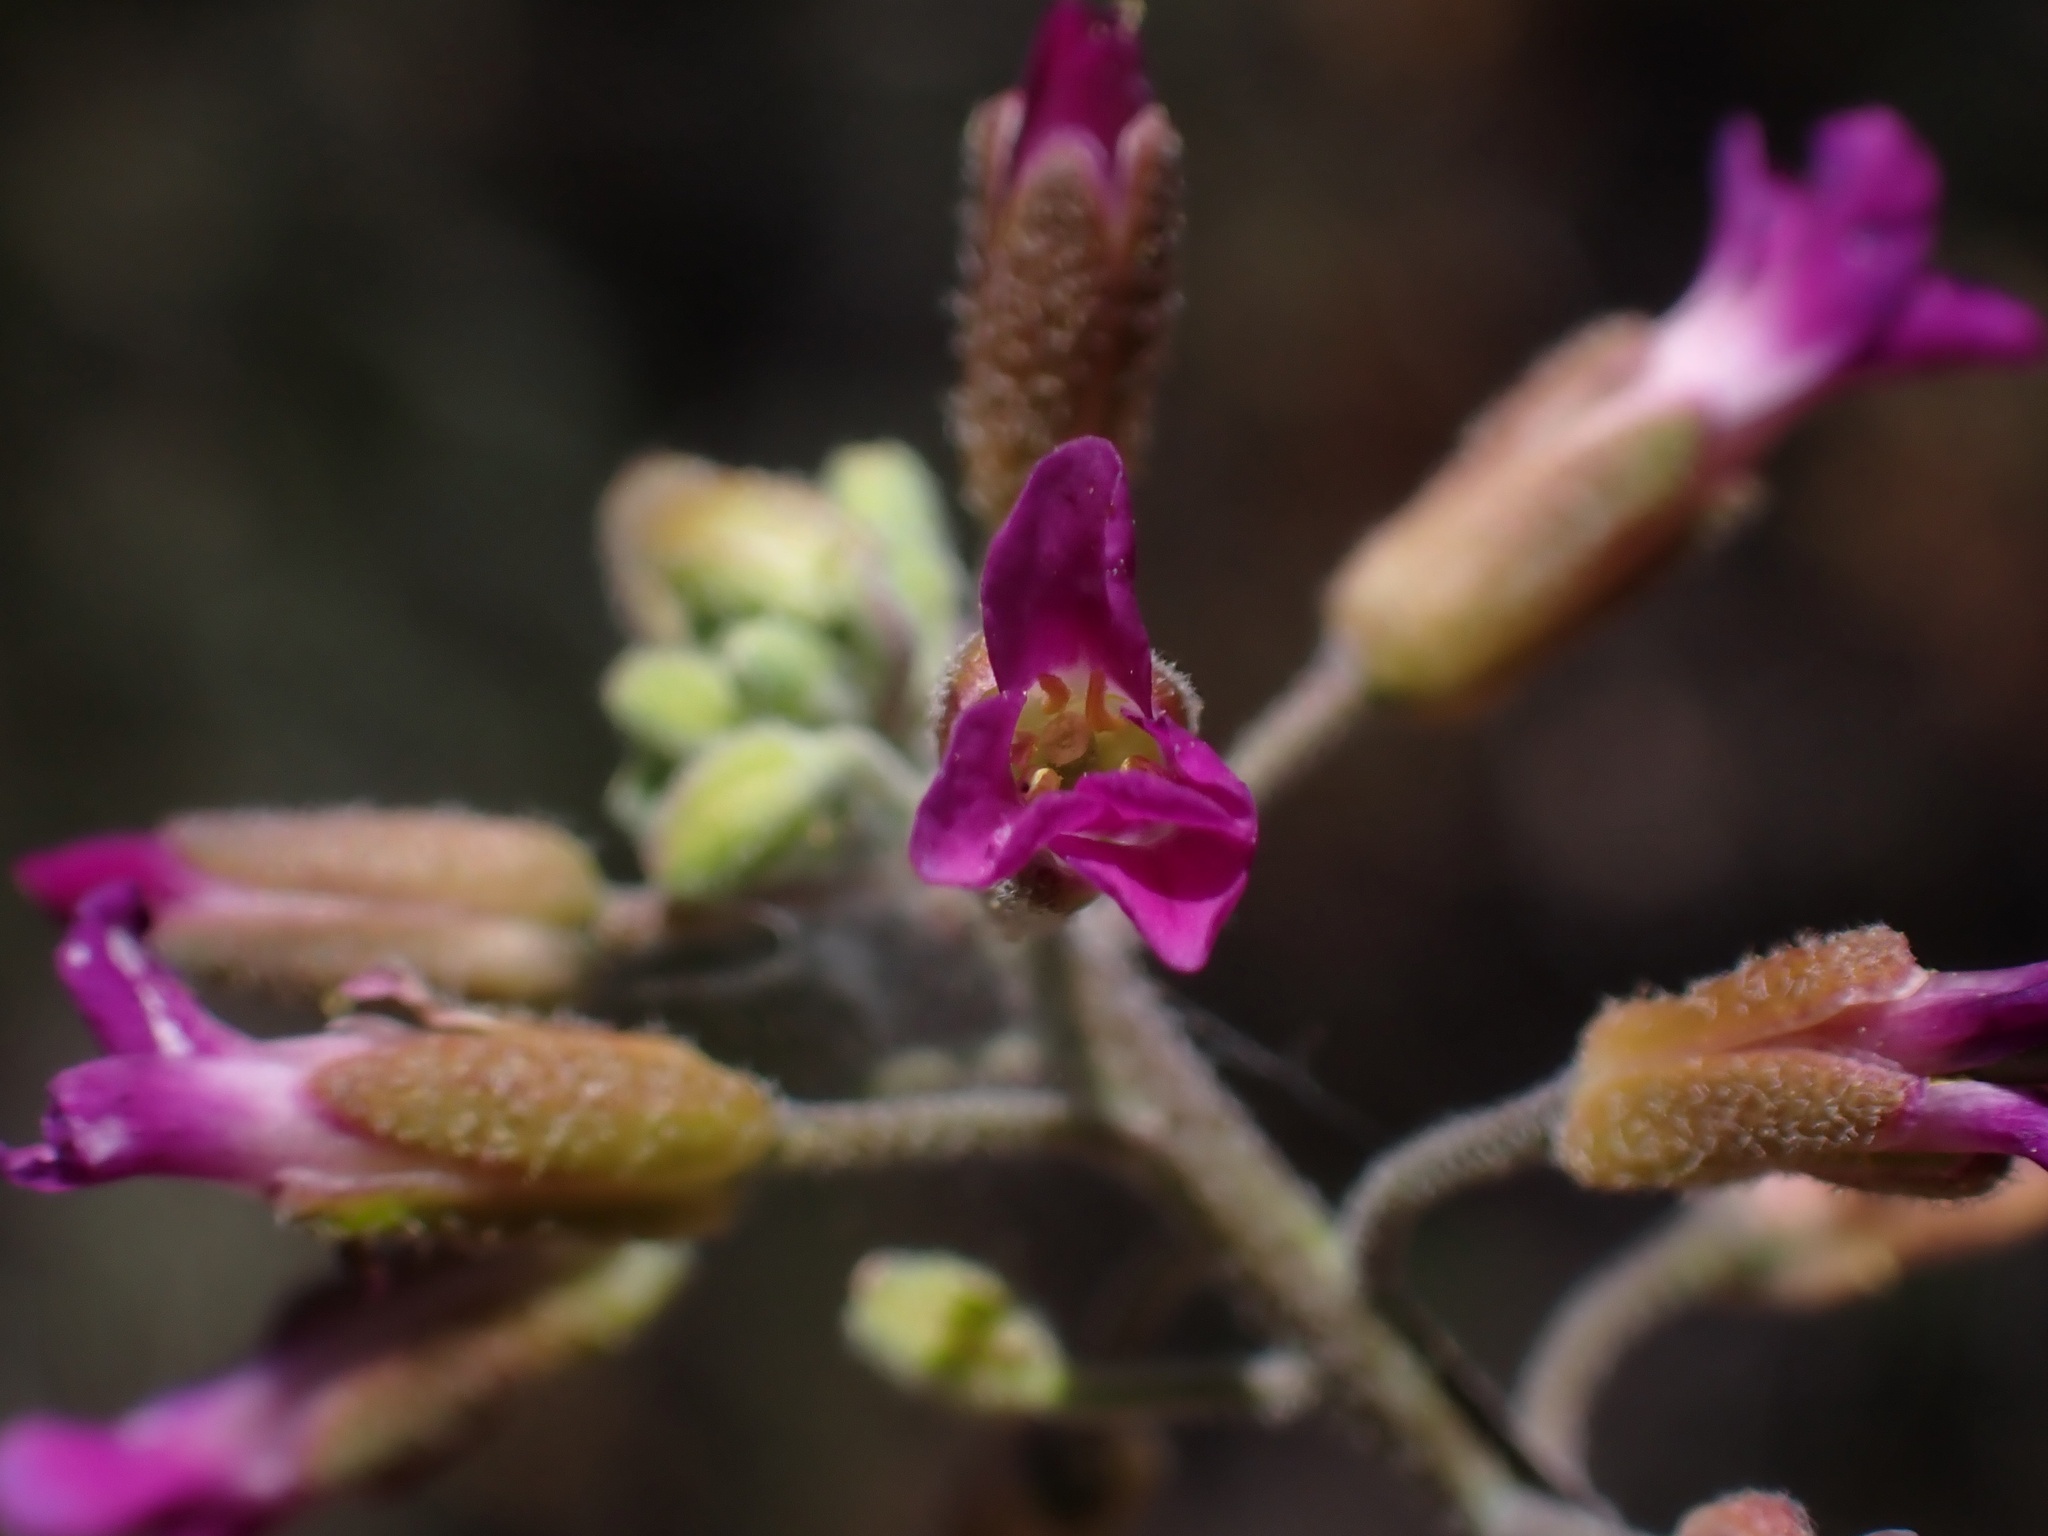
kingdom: Plantae
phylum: Tracheophyta
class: Magnoliopsida
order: Brassicales
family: Brassicaceae
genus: Boechera
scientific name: Boechera californica
